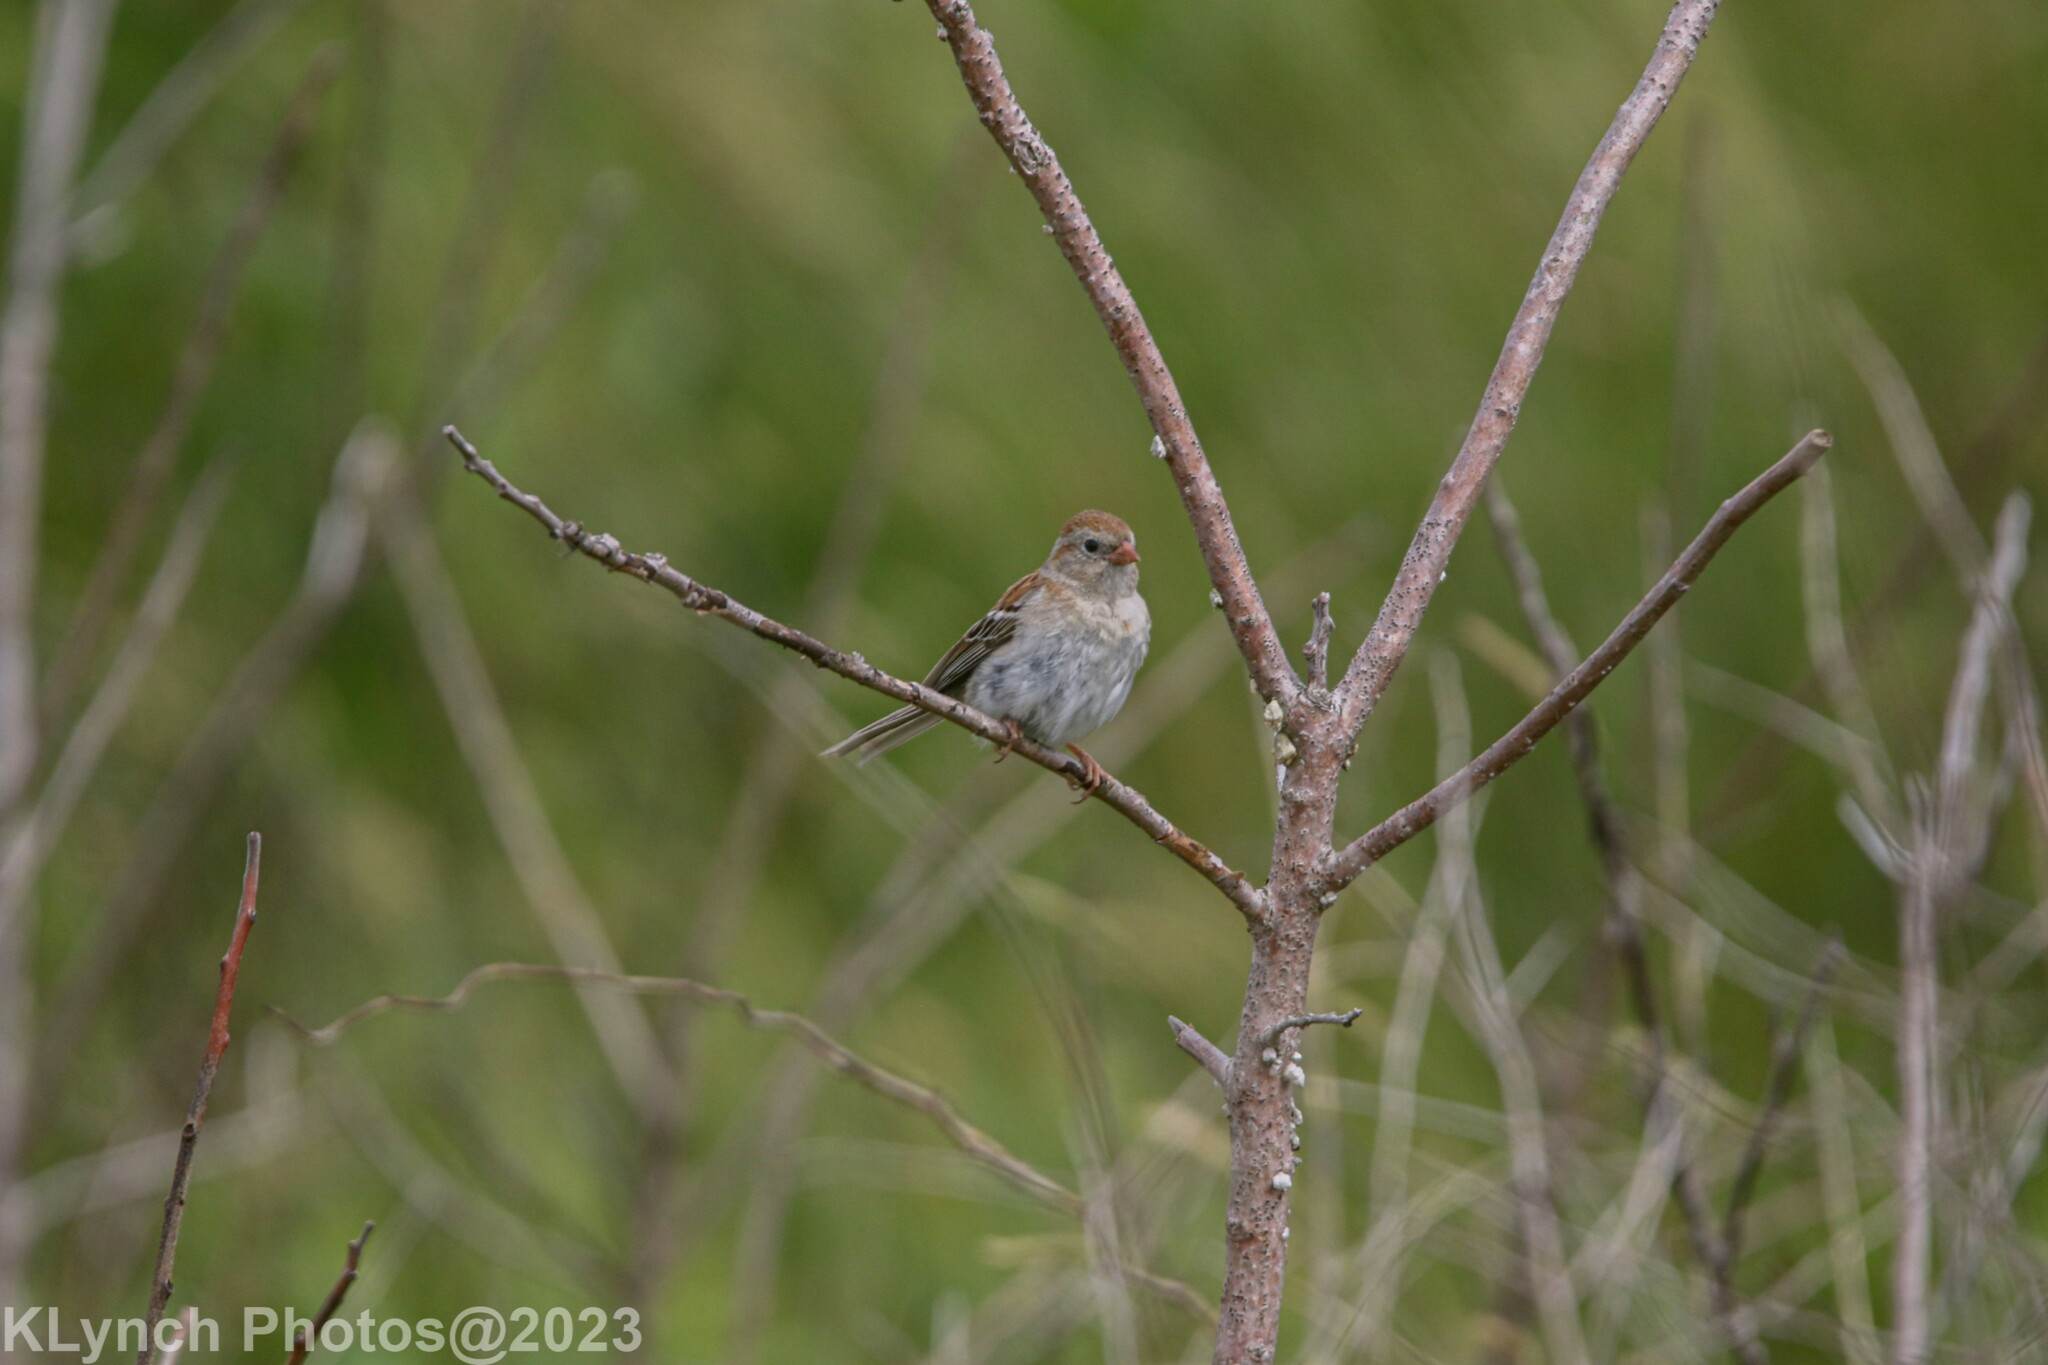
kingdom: Animalia
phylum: Chordata
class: Aves
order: Passeriformes
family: Passerellidae
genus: Spizella
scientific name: Spizella pusilla
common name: Field sparrow
